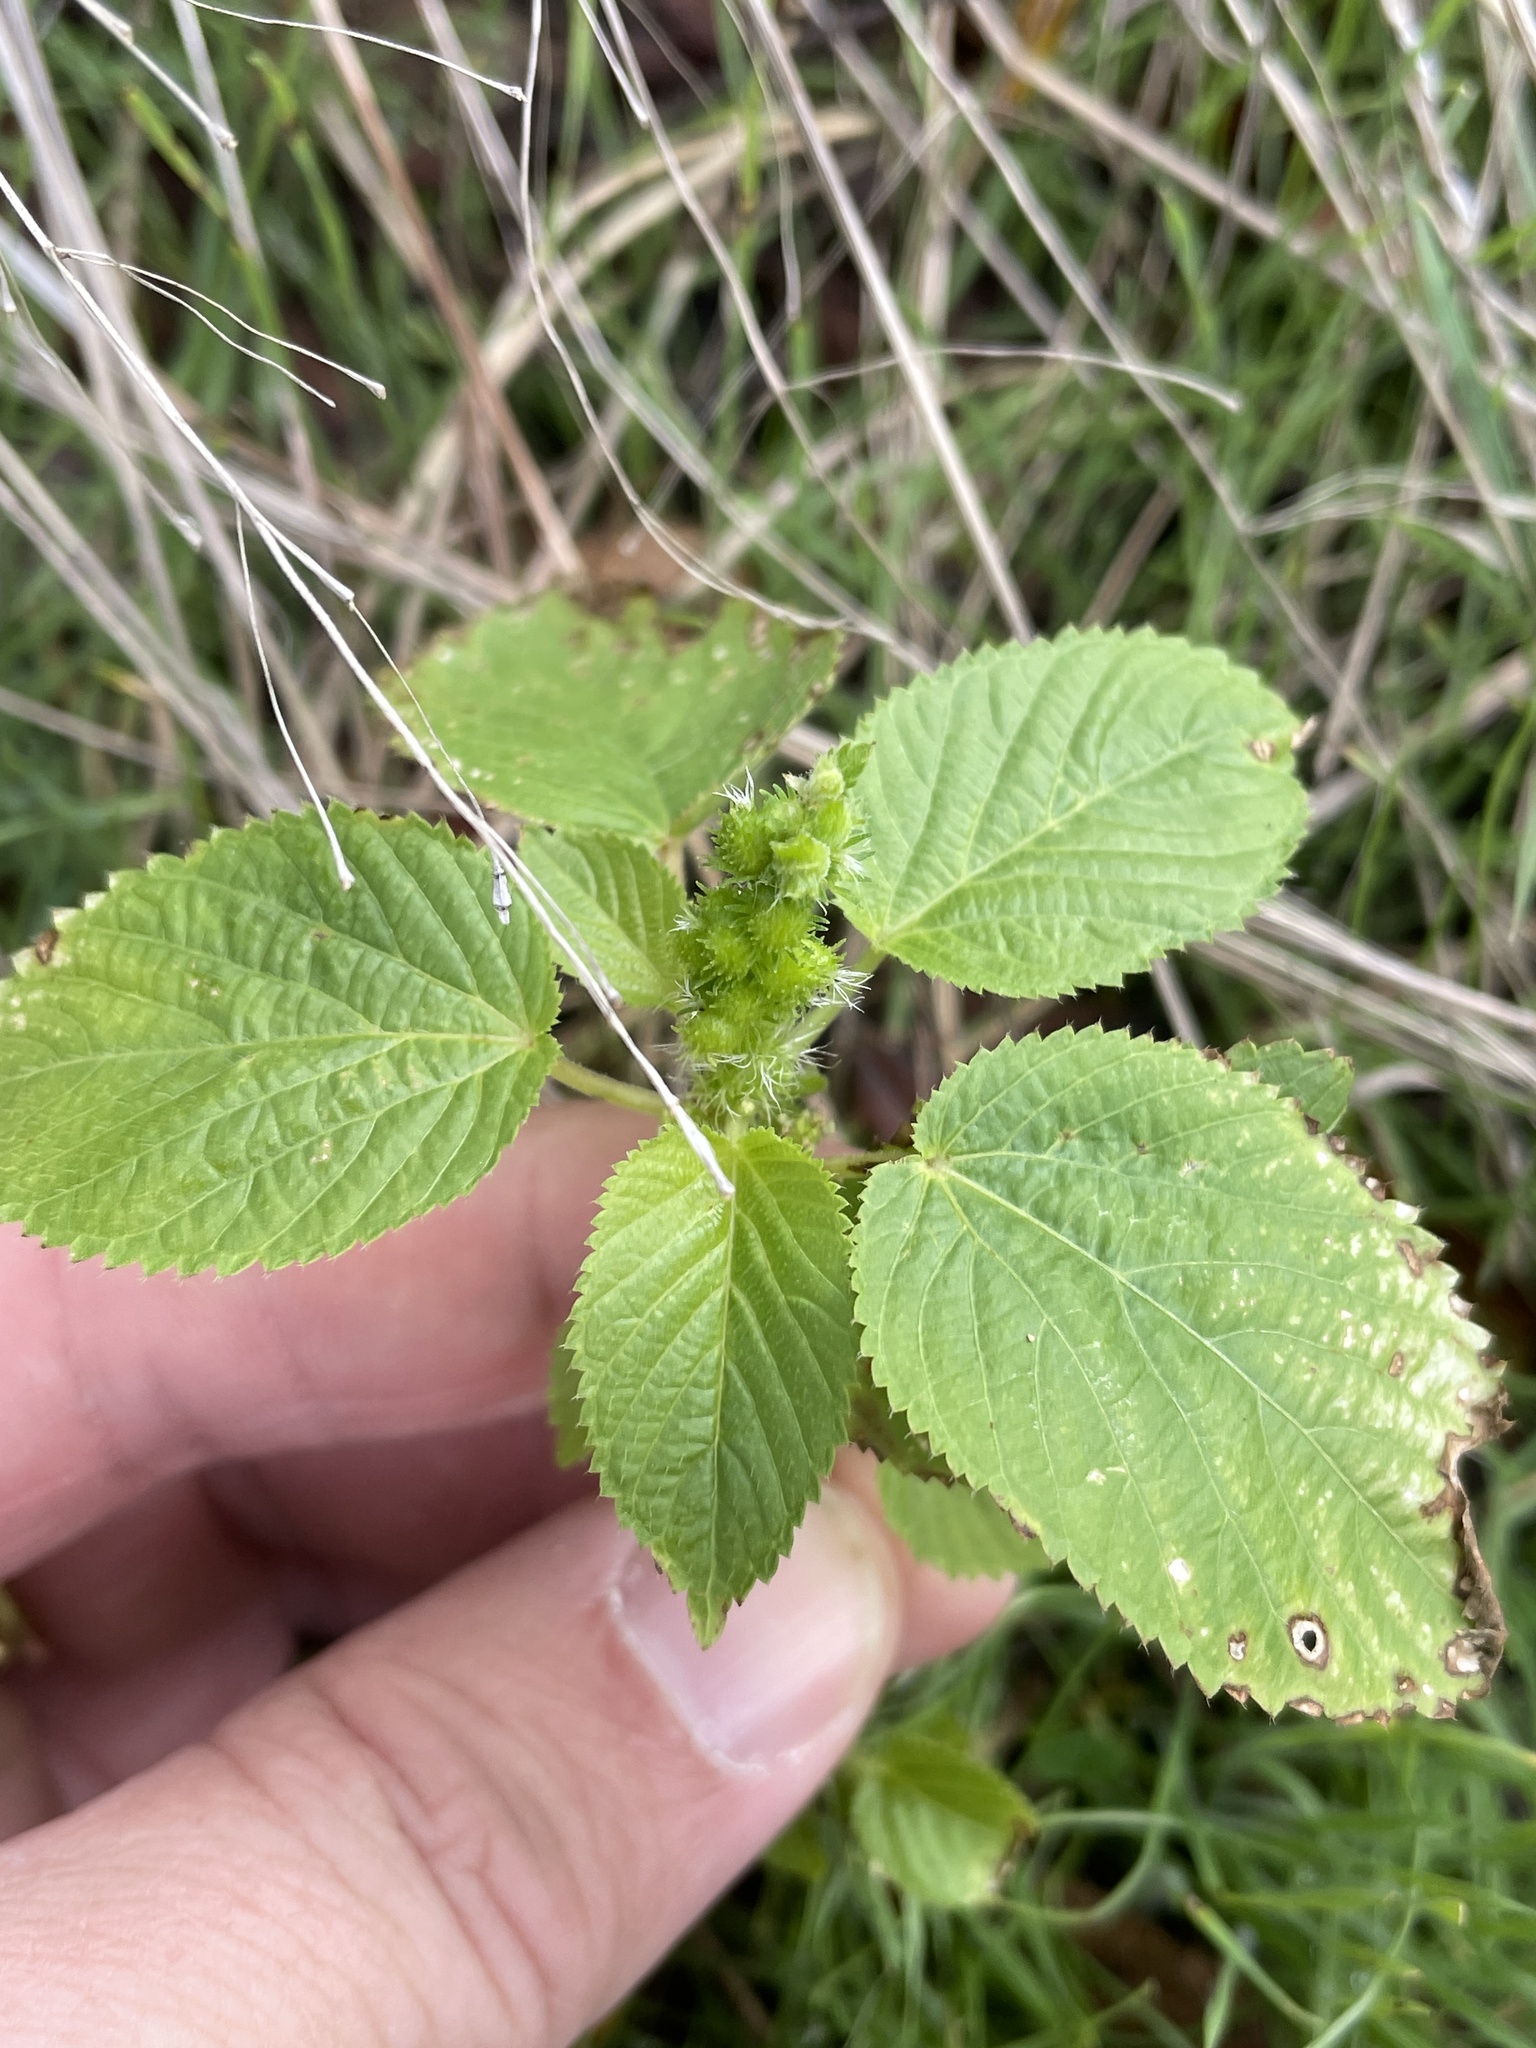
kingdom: Plantae
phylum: Tracheophyta
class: Magnoliopsida
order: Malpighiales
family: Euphorbiaceae
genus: Acalypha
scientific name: Acalypha ostryifolia
